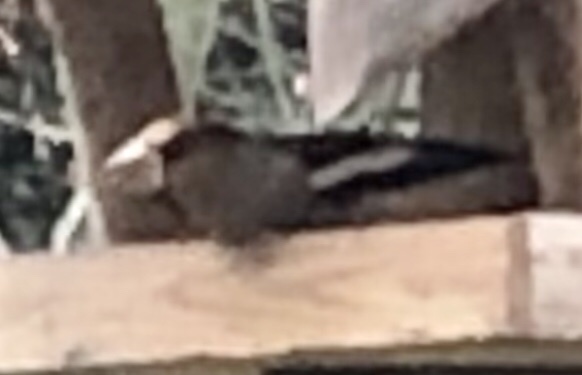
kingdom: Animalia
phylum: Chordata
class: Aves
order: Passeriformes
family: Fringillidae
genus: Coccothraustes
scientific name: Coccothraustes coccothraustes
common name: Hawfinch
